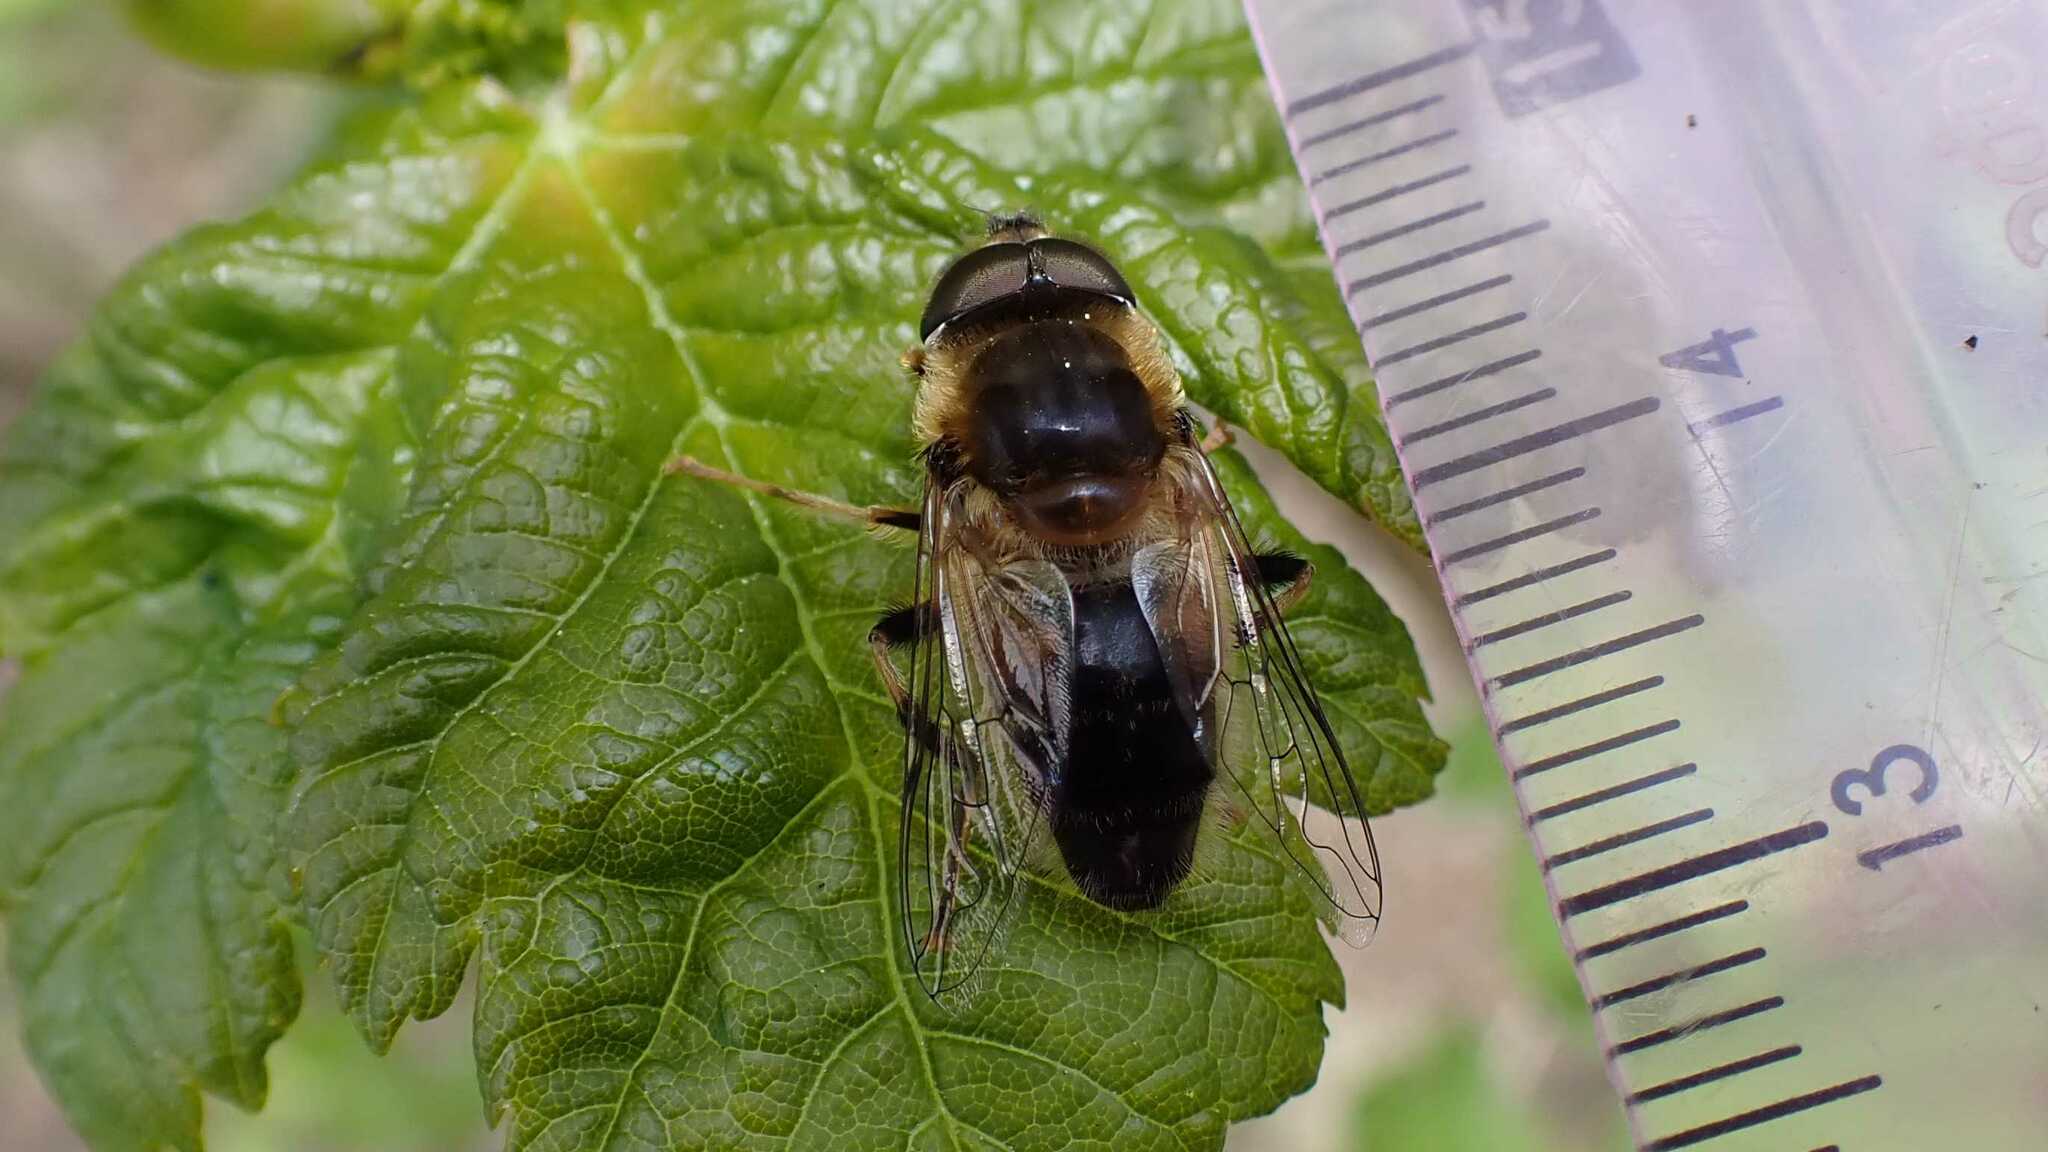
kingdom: Animalia
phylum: Arthropoda
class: Insecta
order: Diptera
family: Syrphidae
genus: Eristalis
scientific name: Eristalis pertinax
